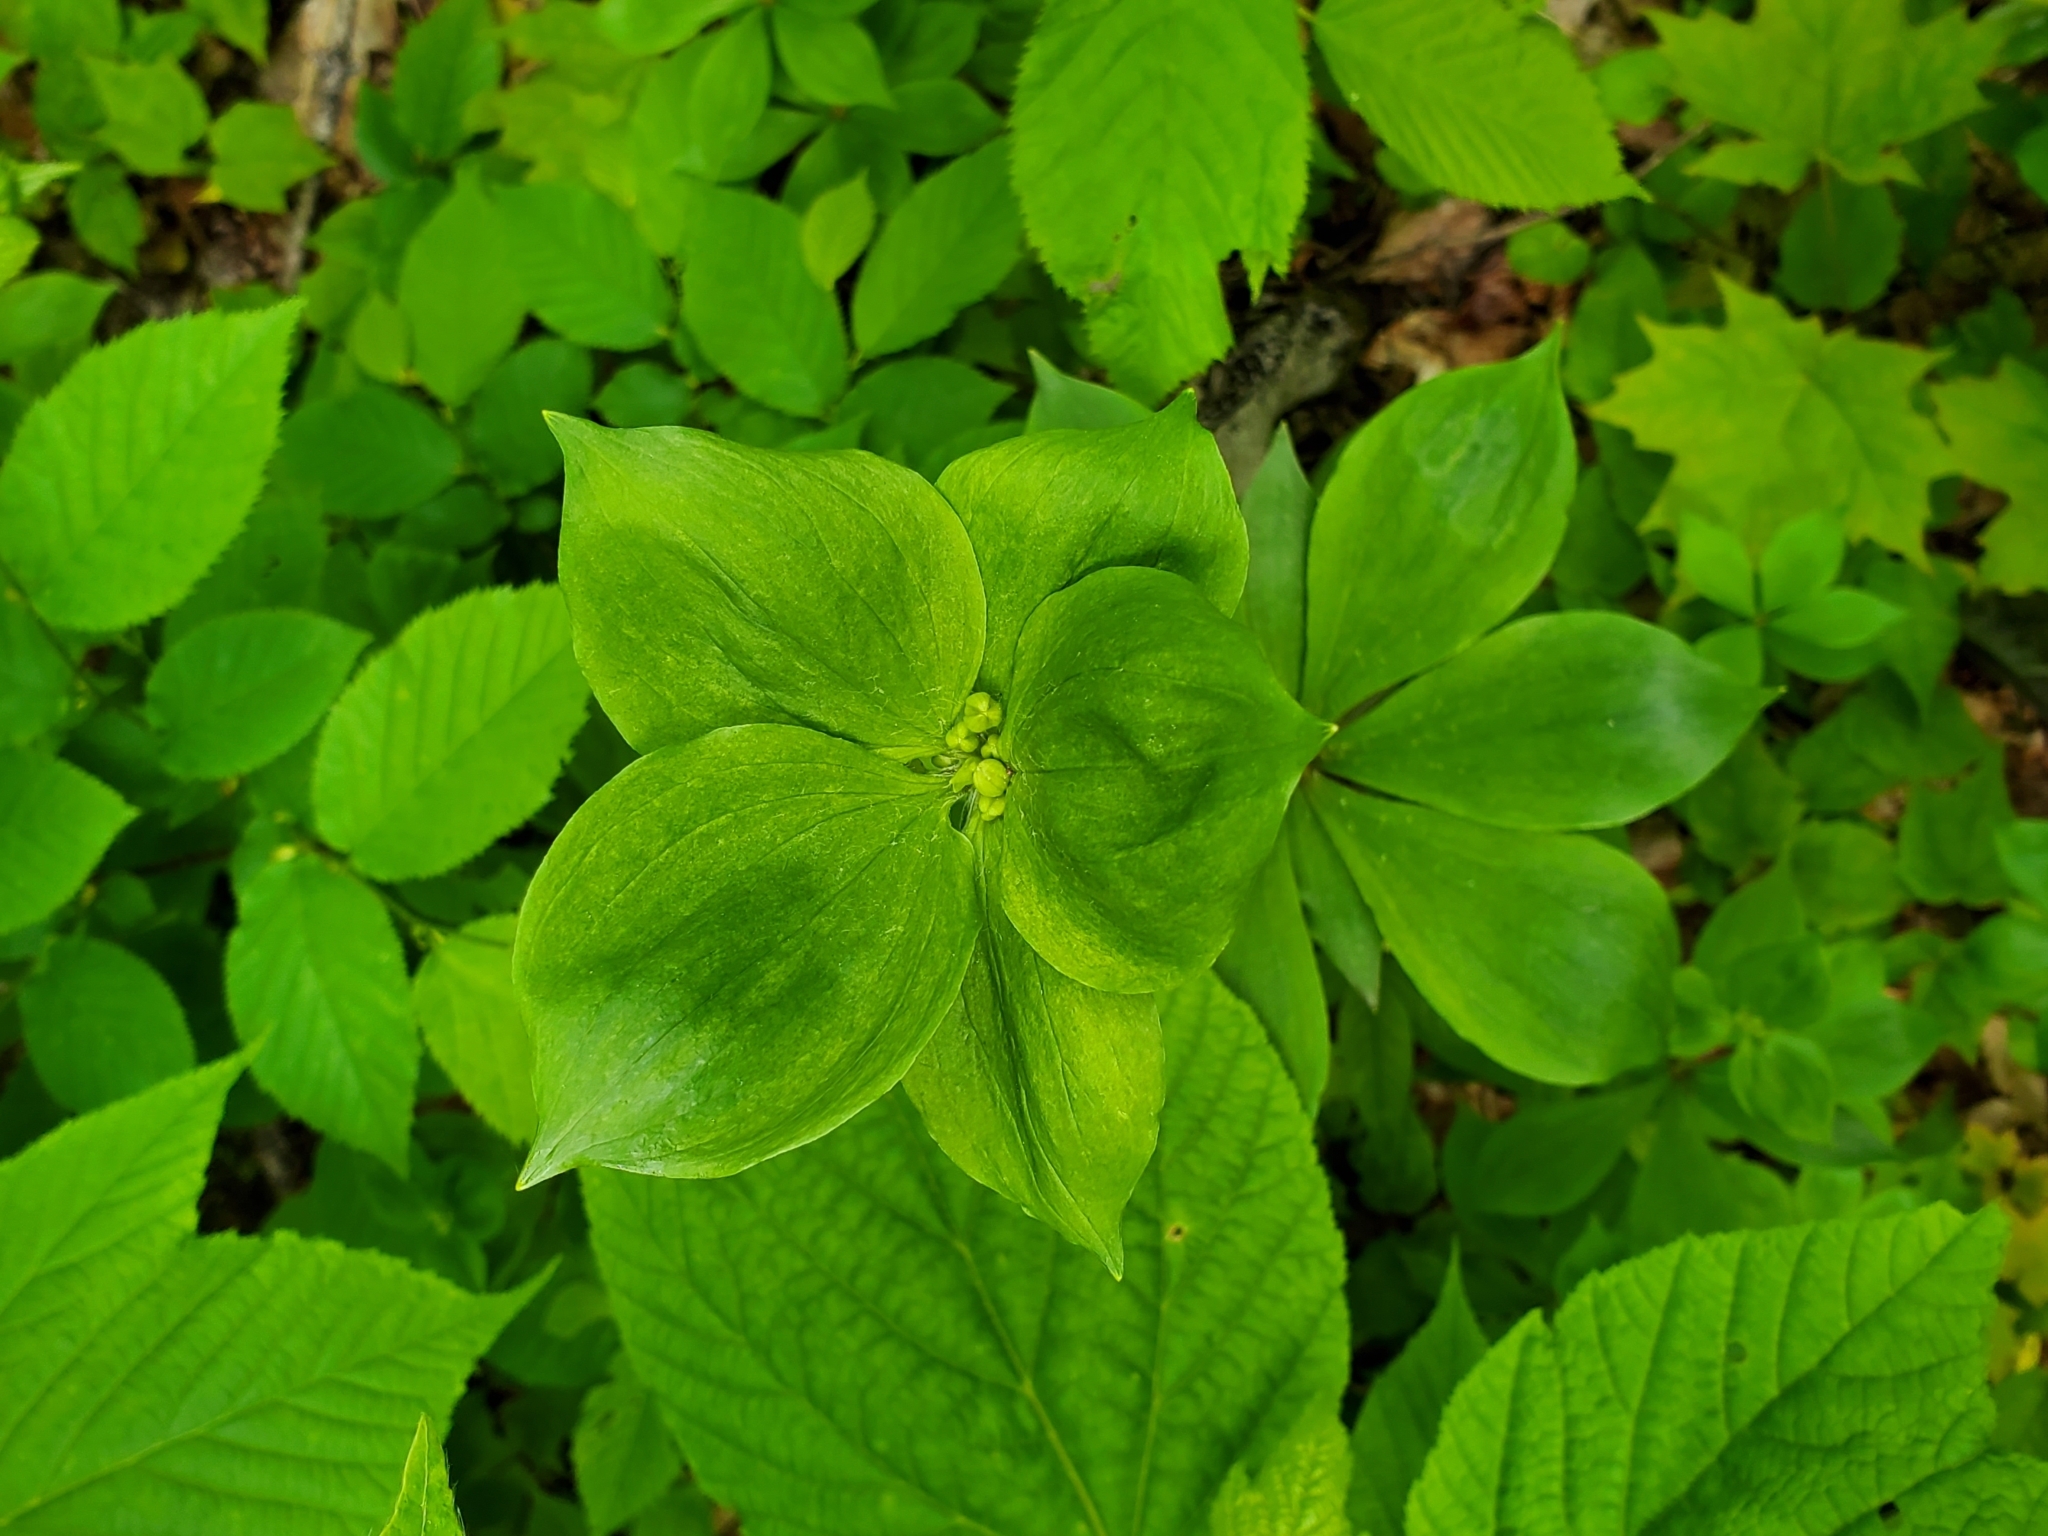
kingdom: Plantae
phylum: Tracheophyta
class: Liliopsida
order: Liliales
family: Liliaceae
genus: Medeola
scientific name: Medeola virginiana
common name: Indian cucumber-root
